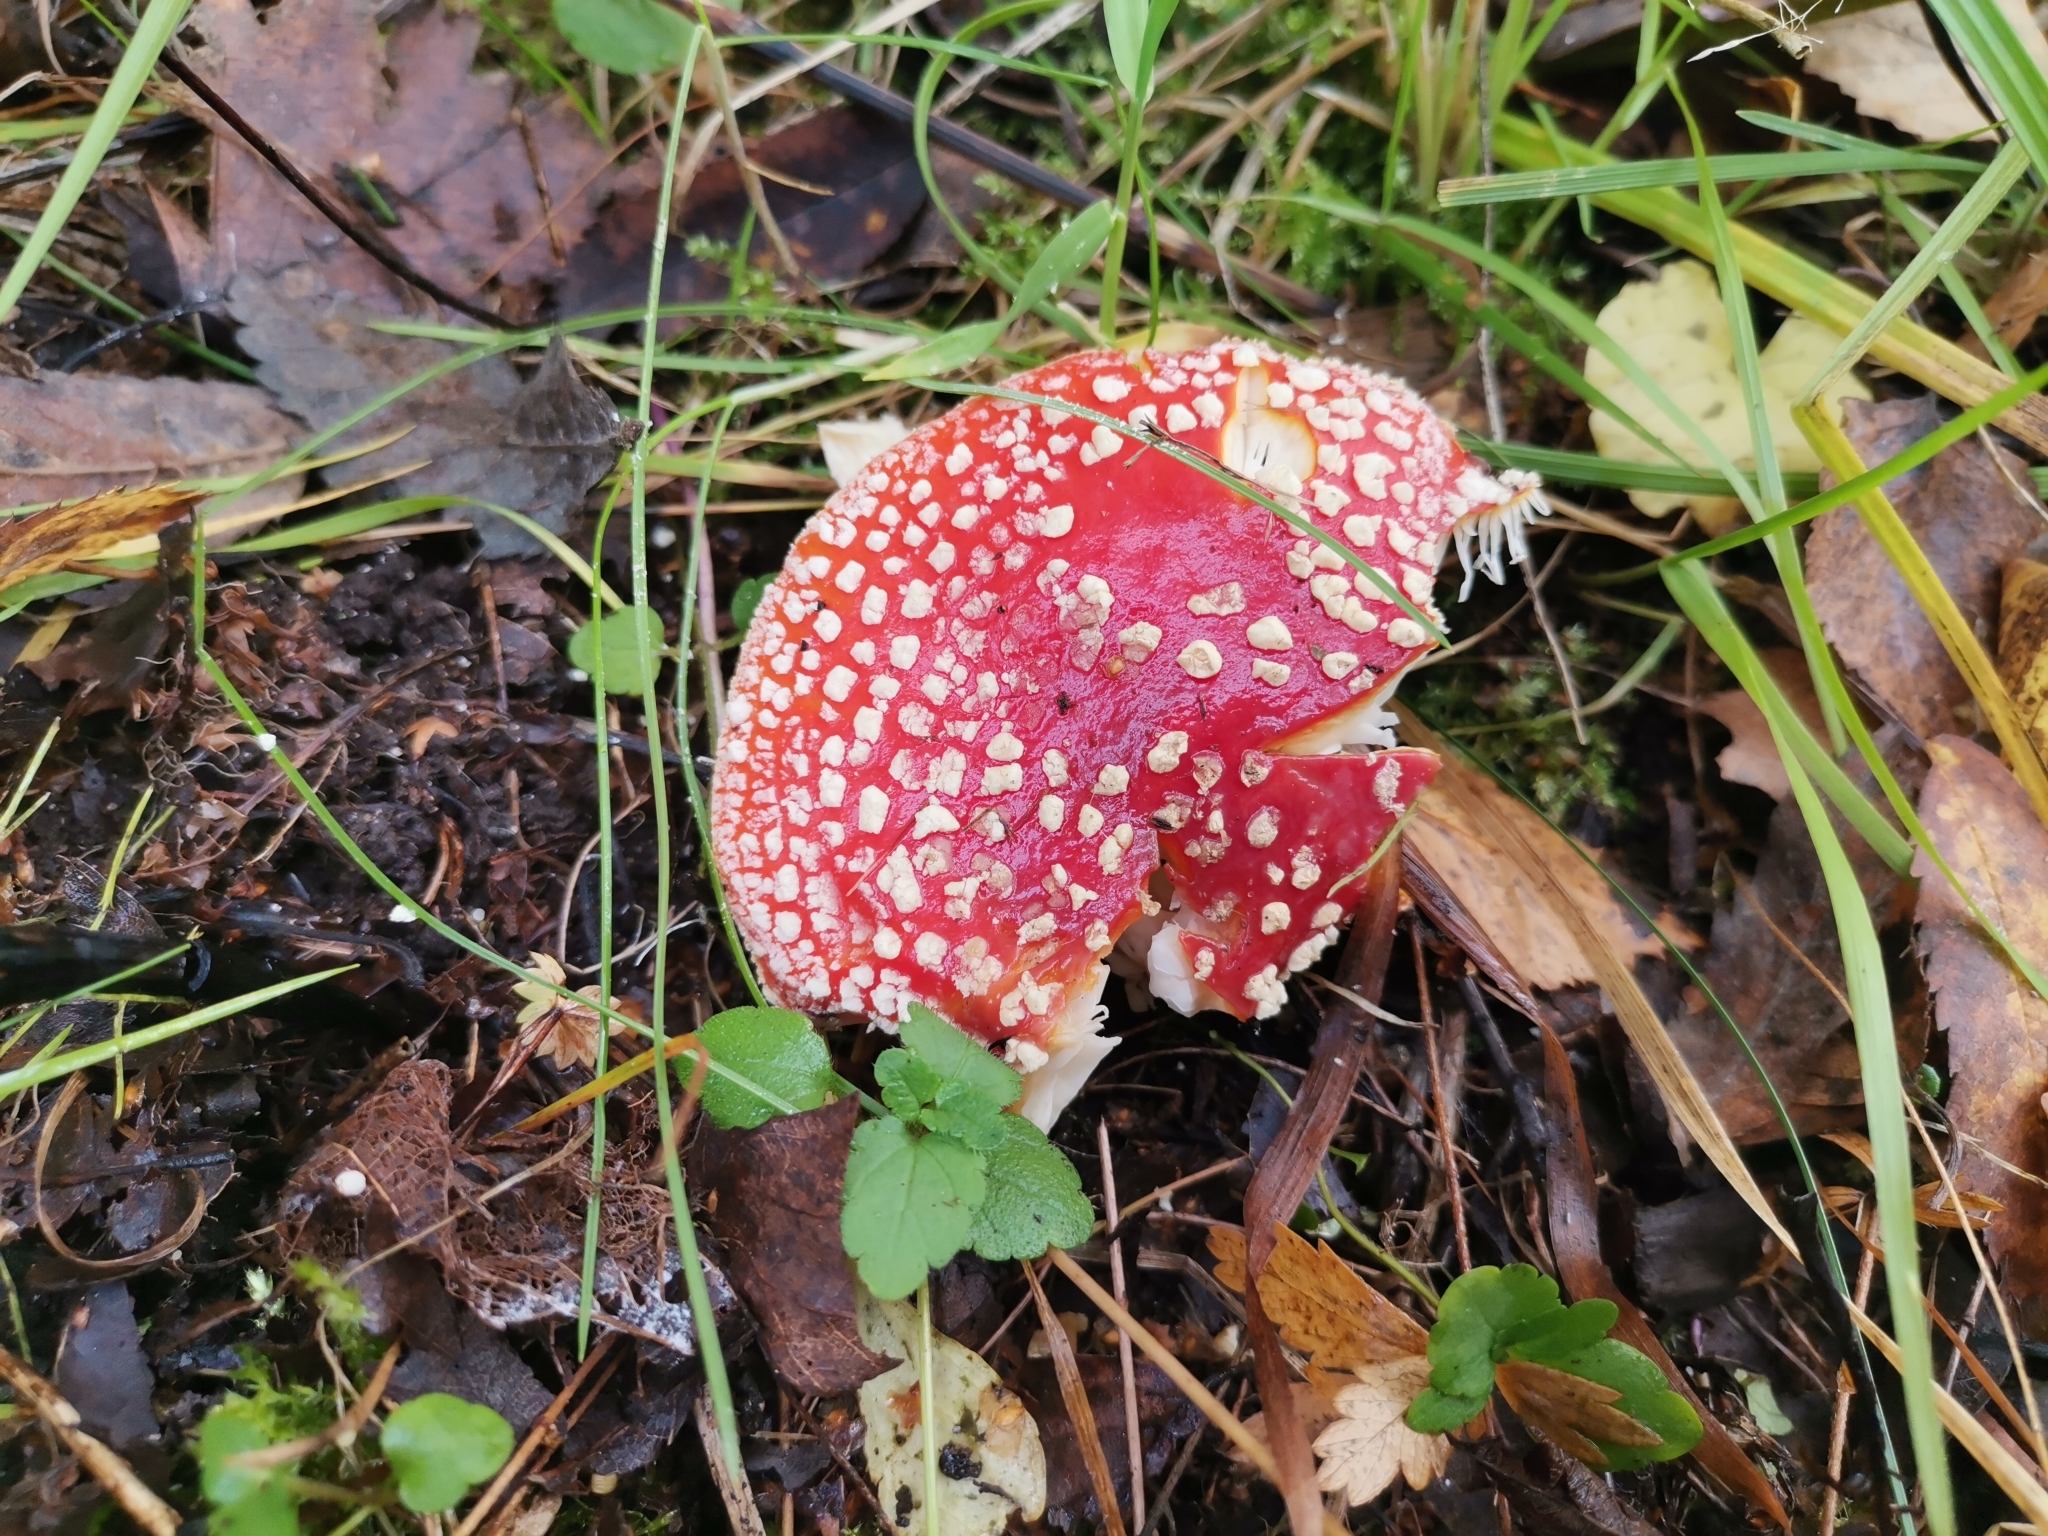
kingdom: Fungi
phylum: Basidiomycota
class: Agaricomycetes
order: Agaricales
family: Amanitaceae
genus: Amanita
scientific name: Amanita muscaria
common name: Fly agaric
